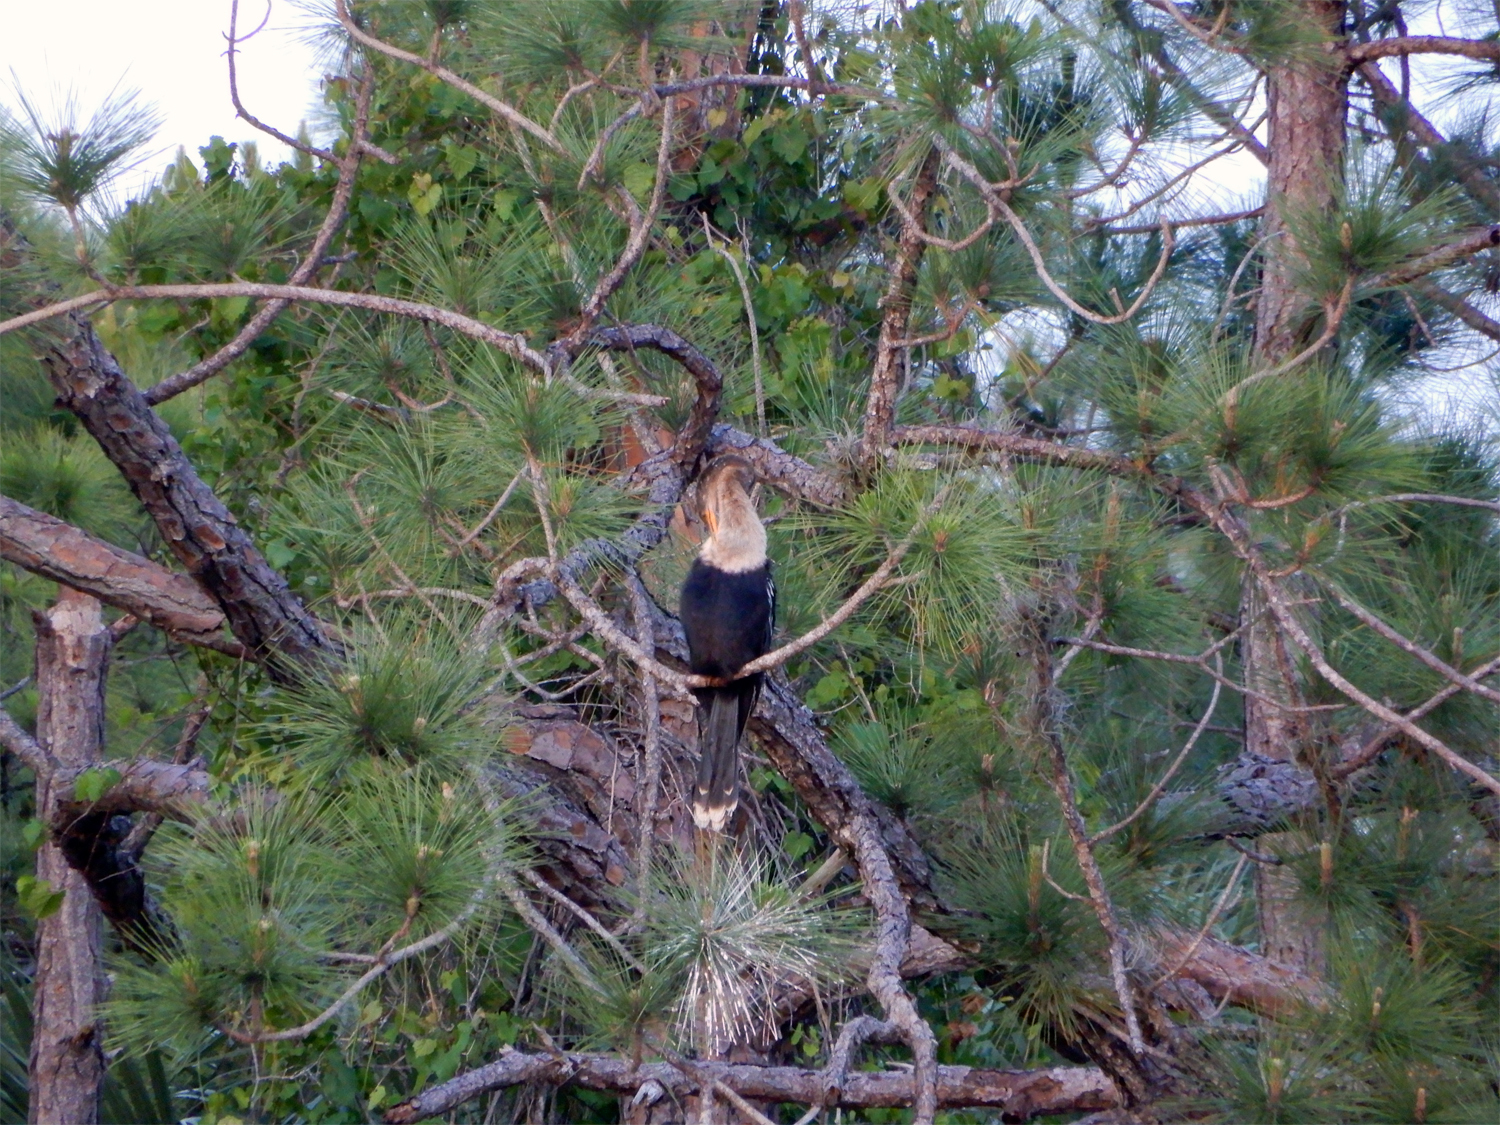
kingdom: Animalia
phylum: Chordata
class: Aves
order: Suliformes
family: Anhingidae
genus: Anhinga
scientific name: Anhinga anhinga
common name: Anhinga
